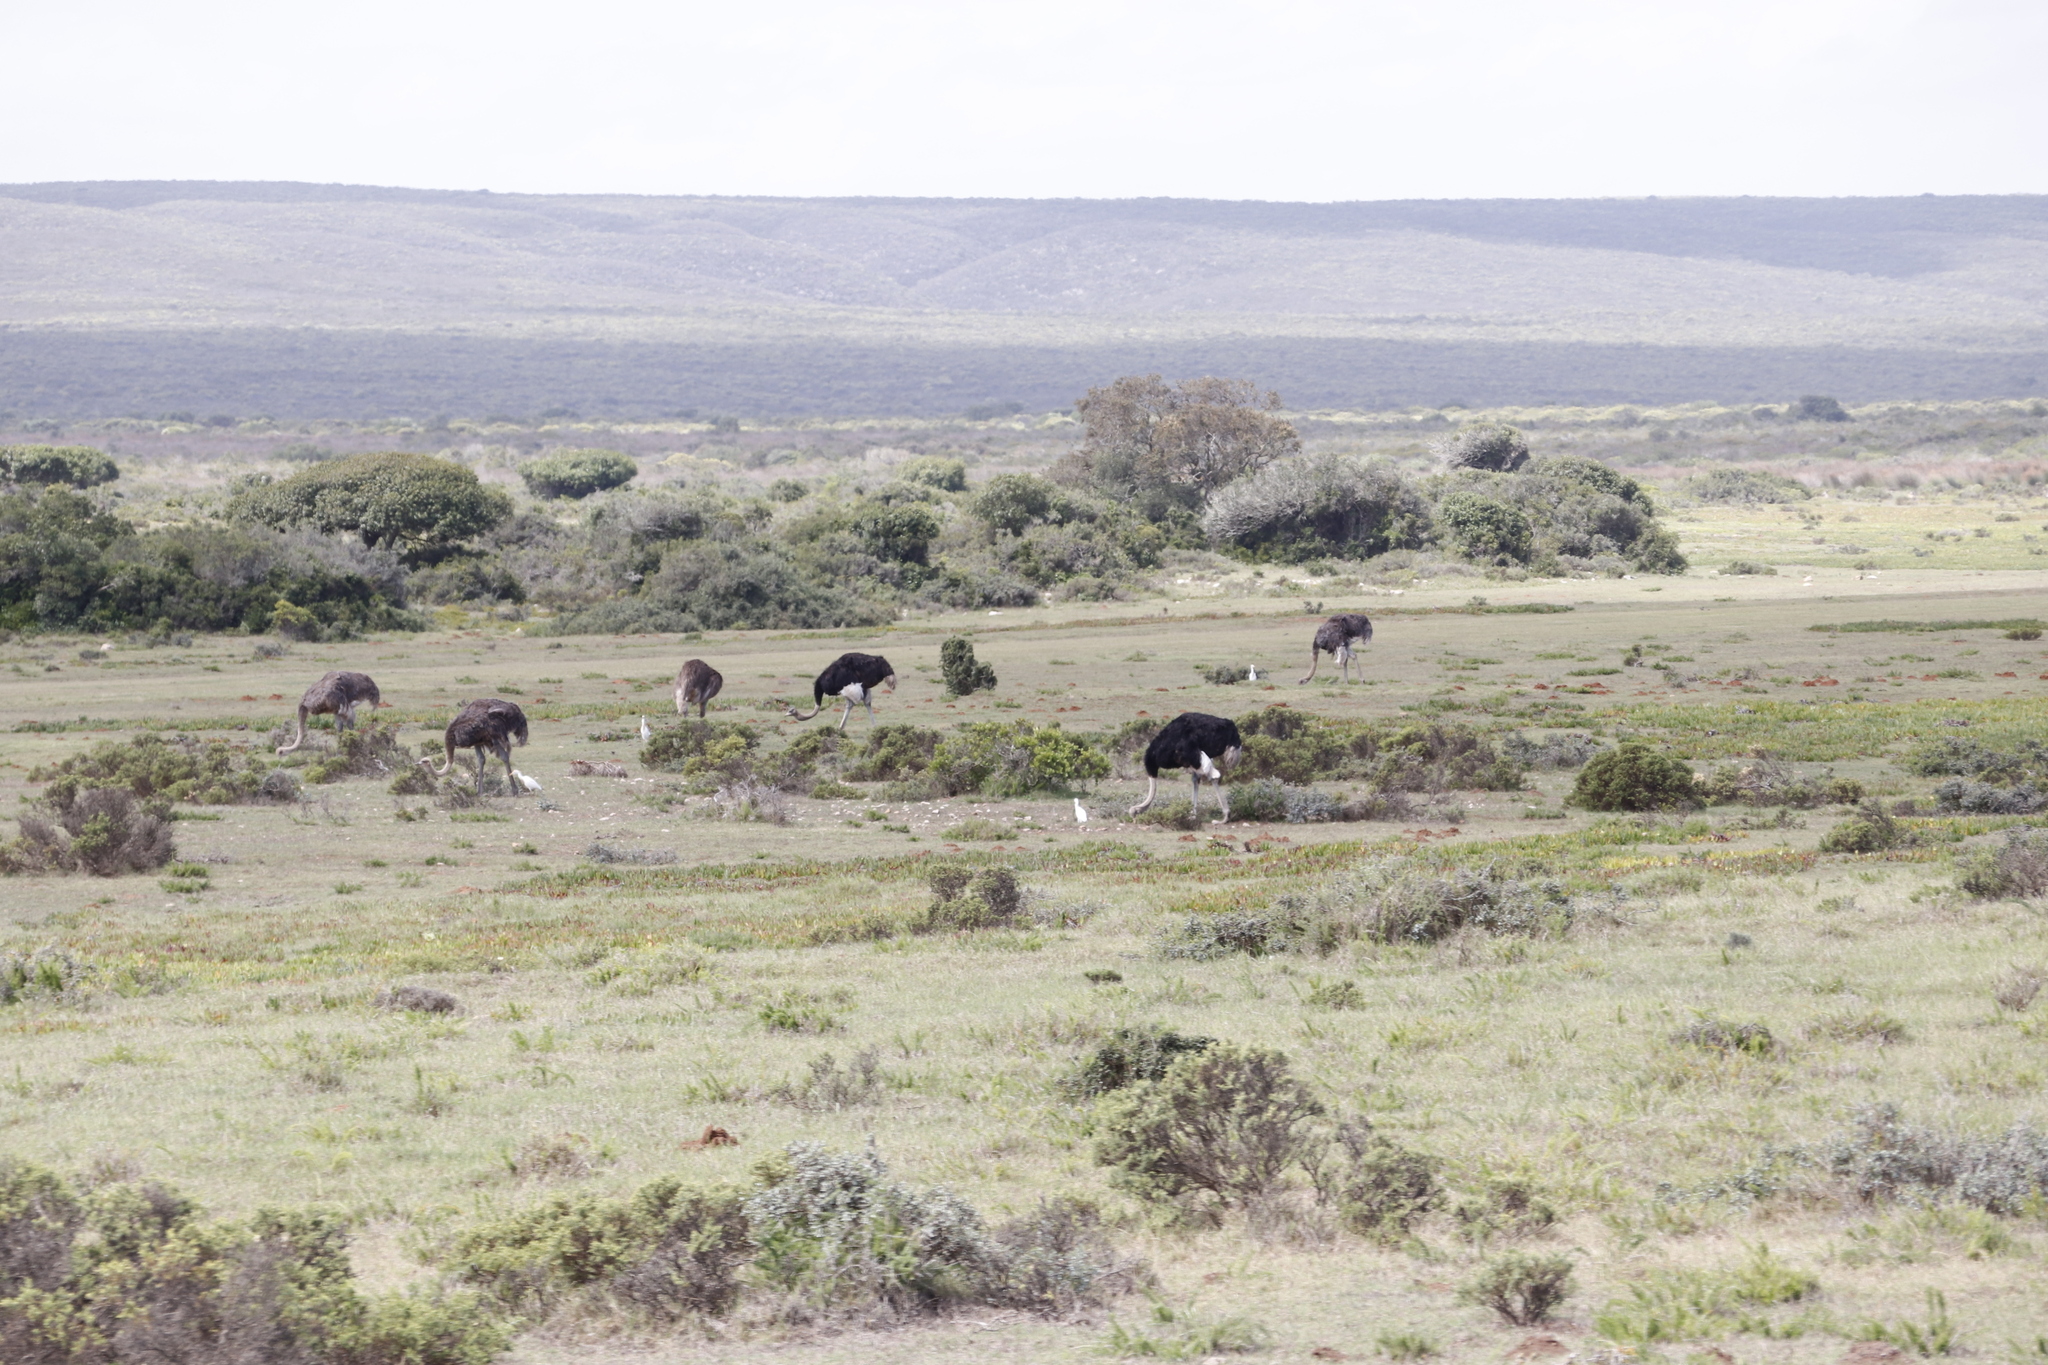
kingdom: Animalia
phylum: Chordata
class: Aves
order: Struthioniformes
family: Struthionidae
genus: Struthio
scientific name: Struthio camelus
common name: Common ostrich
